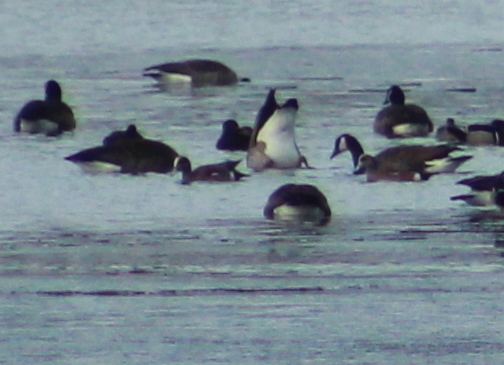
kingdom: Animalia
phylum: Chordata
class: Aves
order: Anseriformes
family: Anatidae
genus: Mareca
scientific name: Mareca americana
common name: American wigeon
